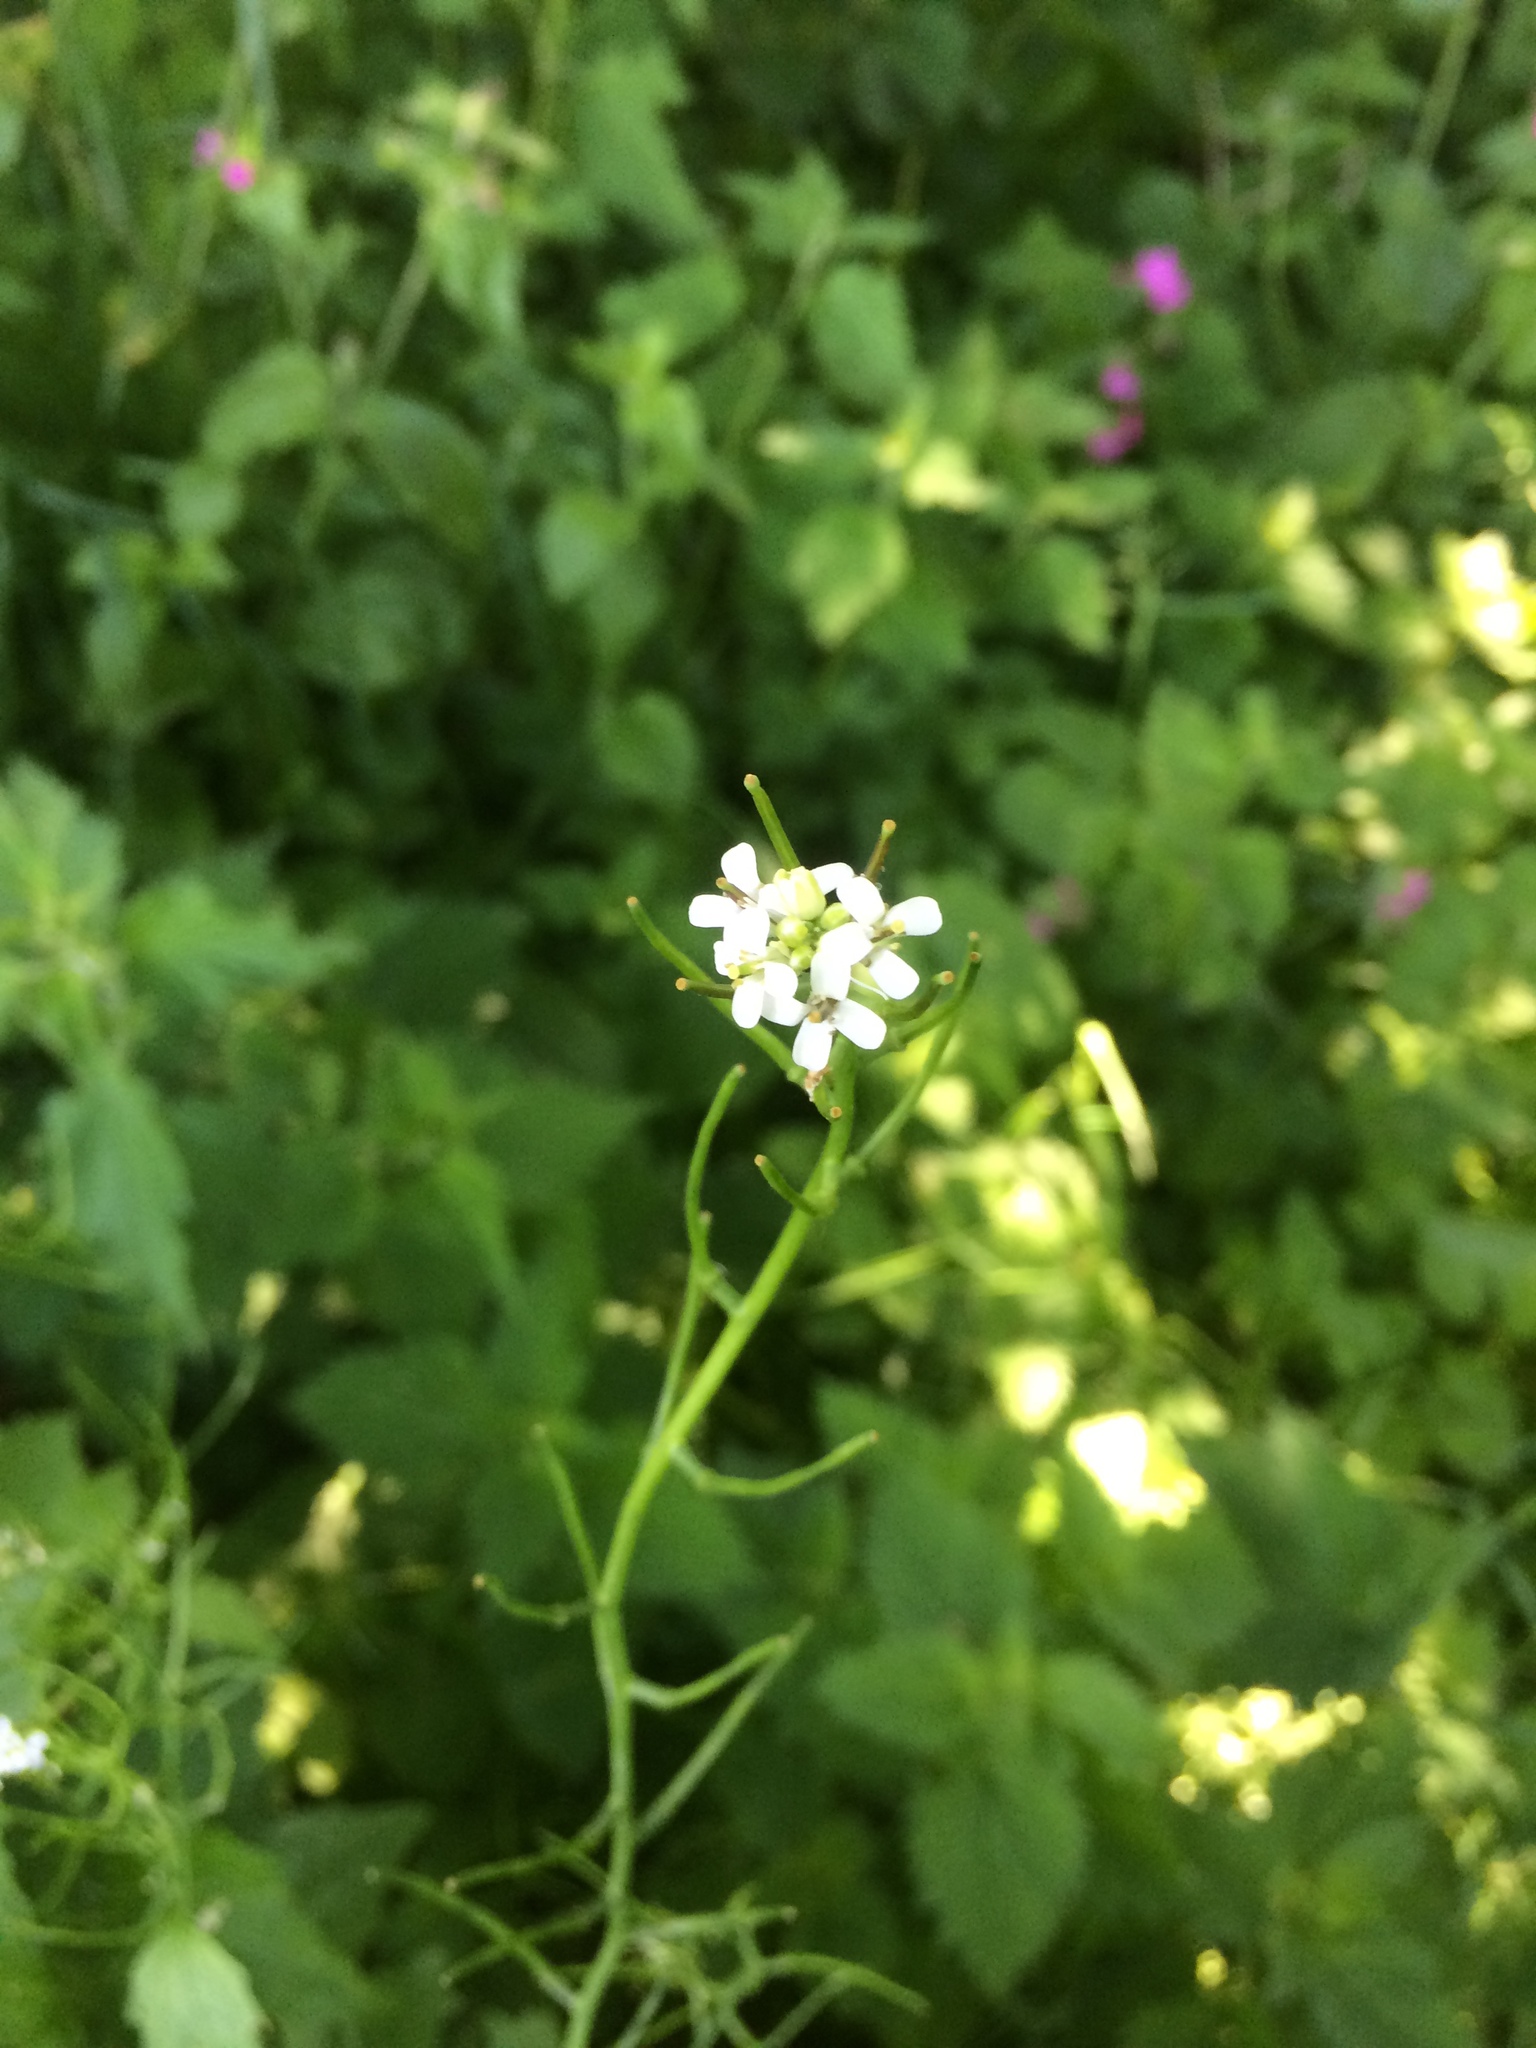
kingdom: Plantae
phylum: Tracheophyta
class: Magnoliopsida
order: Brassicales
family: Brassicaceae
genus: Alliaria
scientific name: Alliaria petiolata
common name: Garlic mustard
